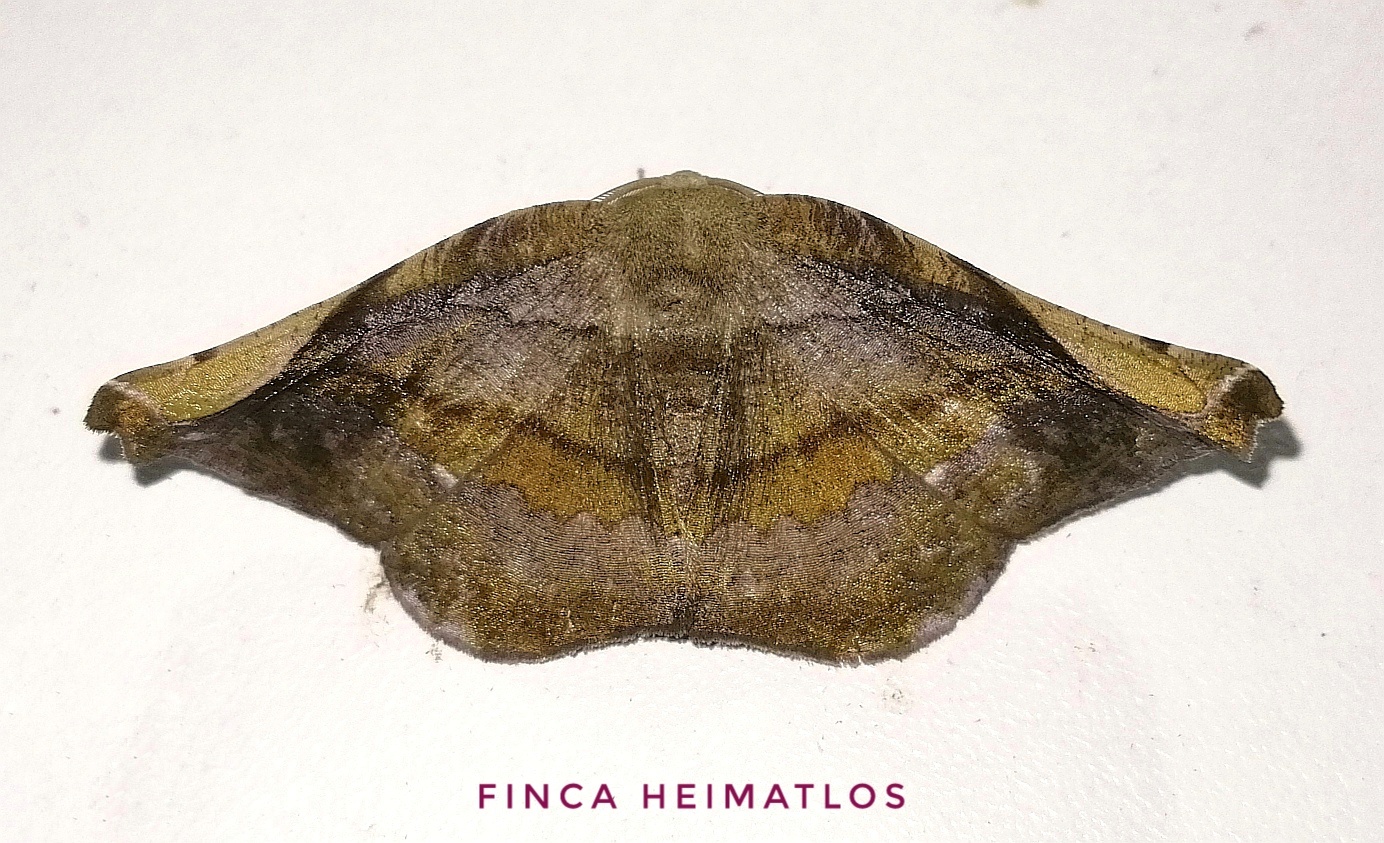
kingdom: Animalia
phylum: Arthropoda
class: Insecta
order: Lepidoptera
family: Geometridae
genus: Hygrochroma
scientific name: Hygrochroma olivinaria
